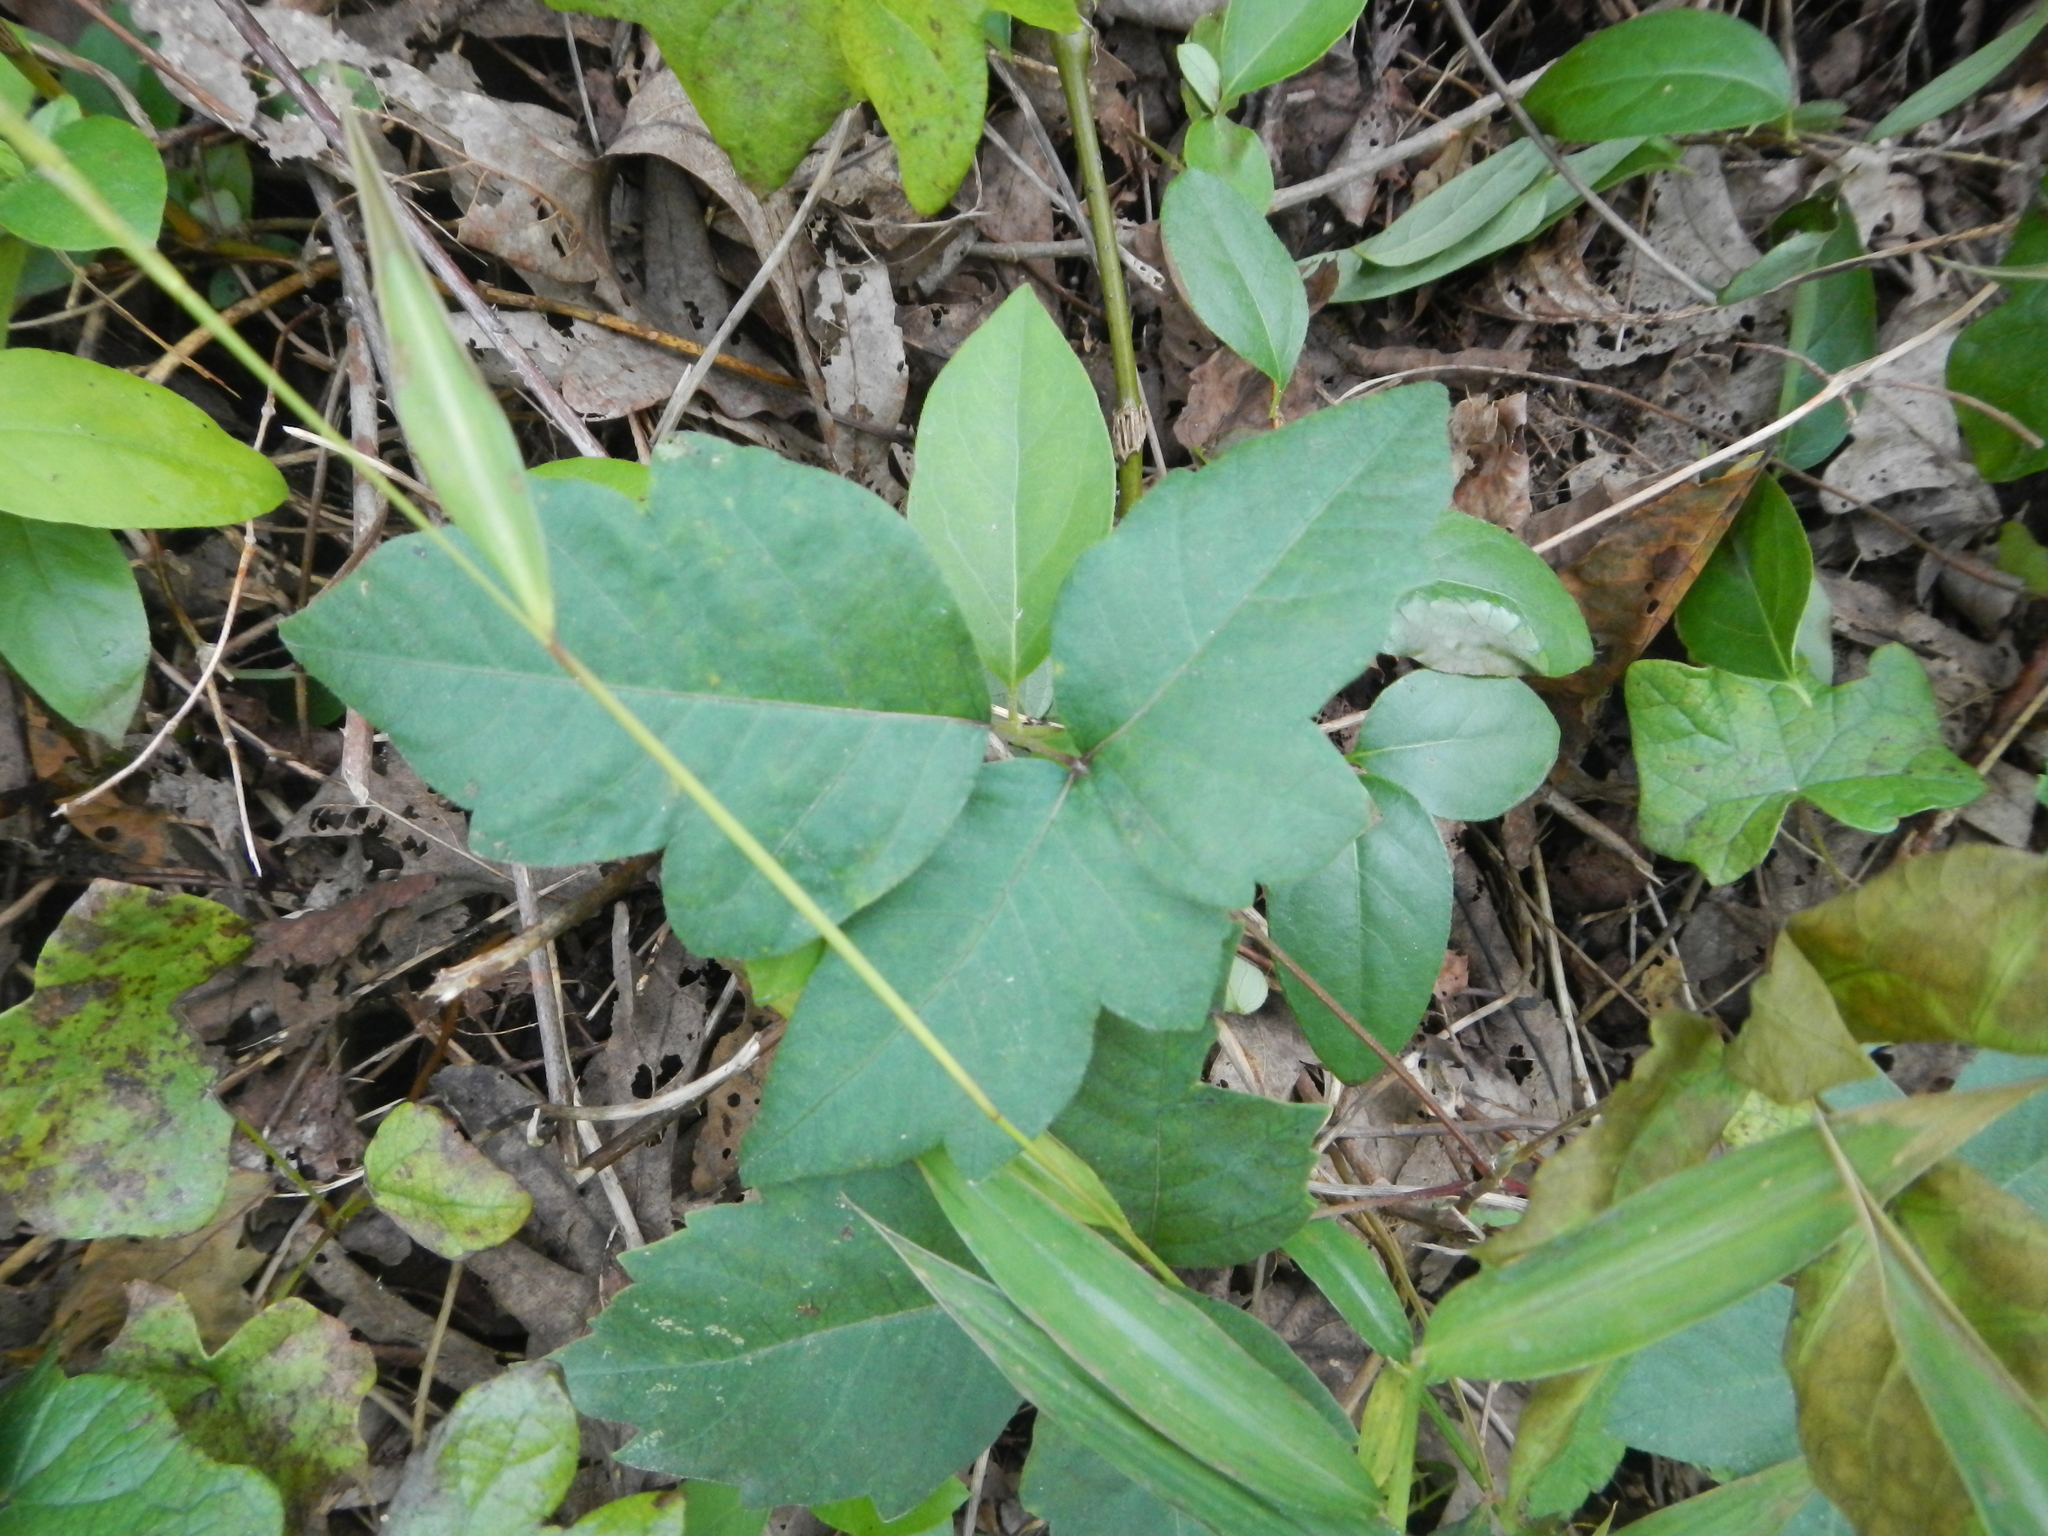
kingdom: Plantae
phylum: Tracheophyta
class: Magnoliopsida
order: Sapindales
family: Anacardiaceae
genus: Toxicodendron
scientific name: Toxicodendron radicans
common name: Poison ivy
